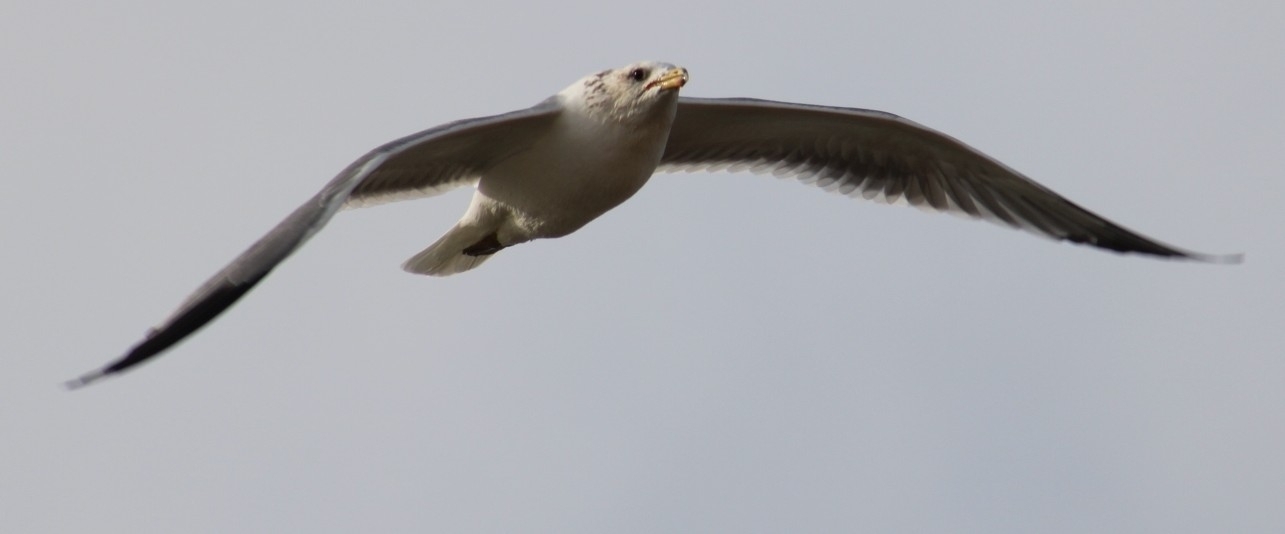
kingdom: Animalia
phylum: Chordata
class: Aves
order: Charadriiformes
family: Laridae
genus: Larus
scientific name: Larus californicus
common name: California gull
